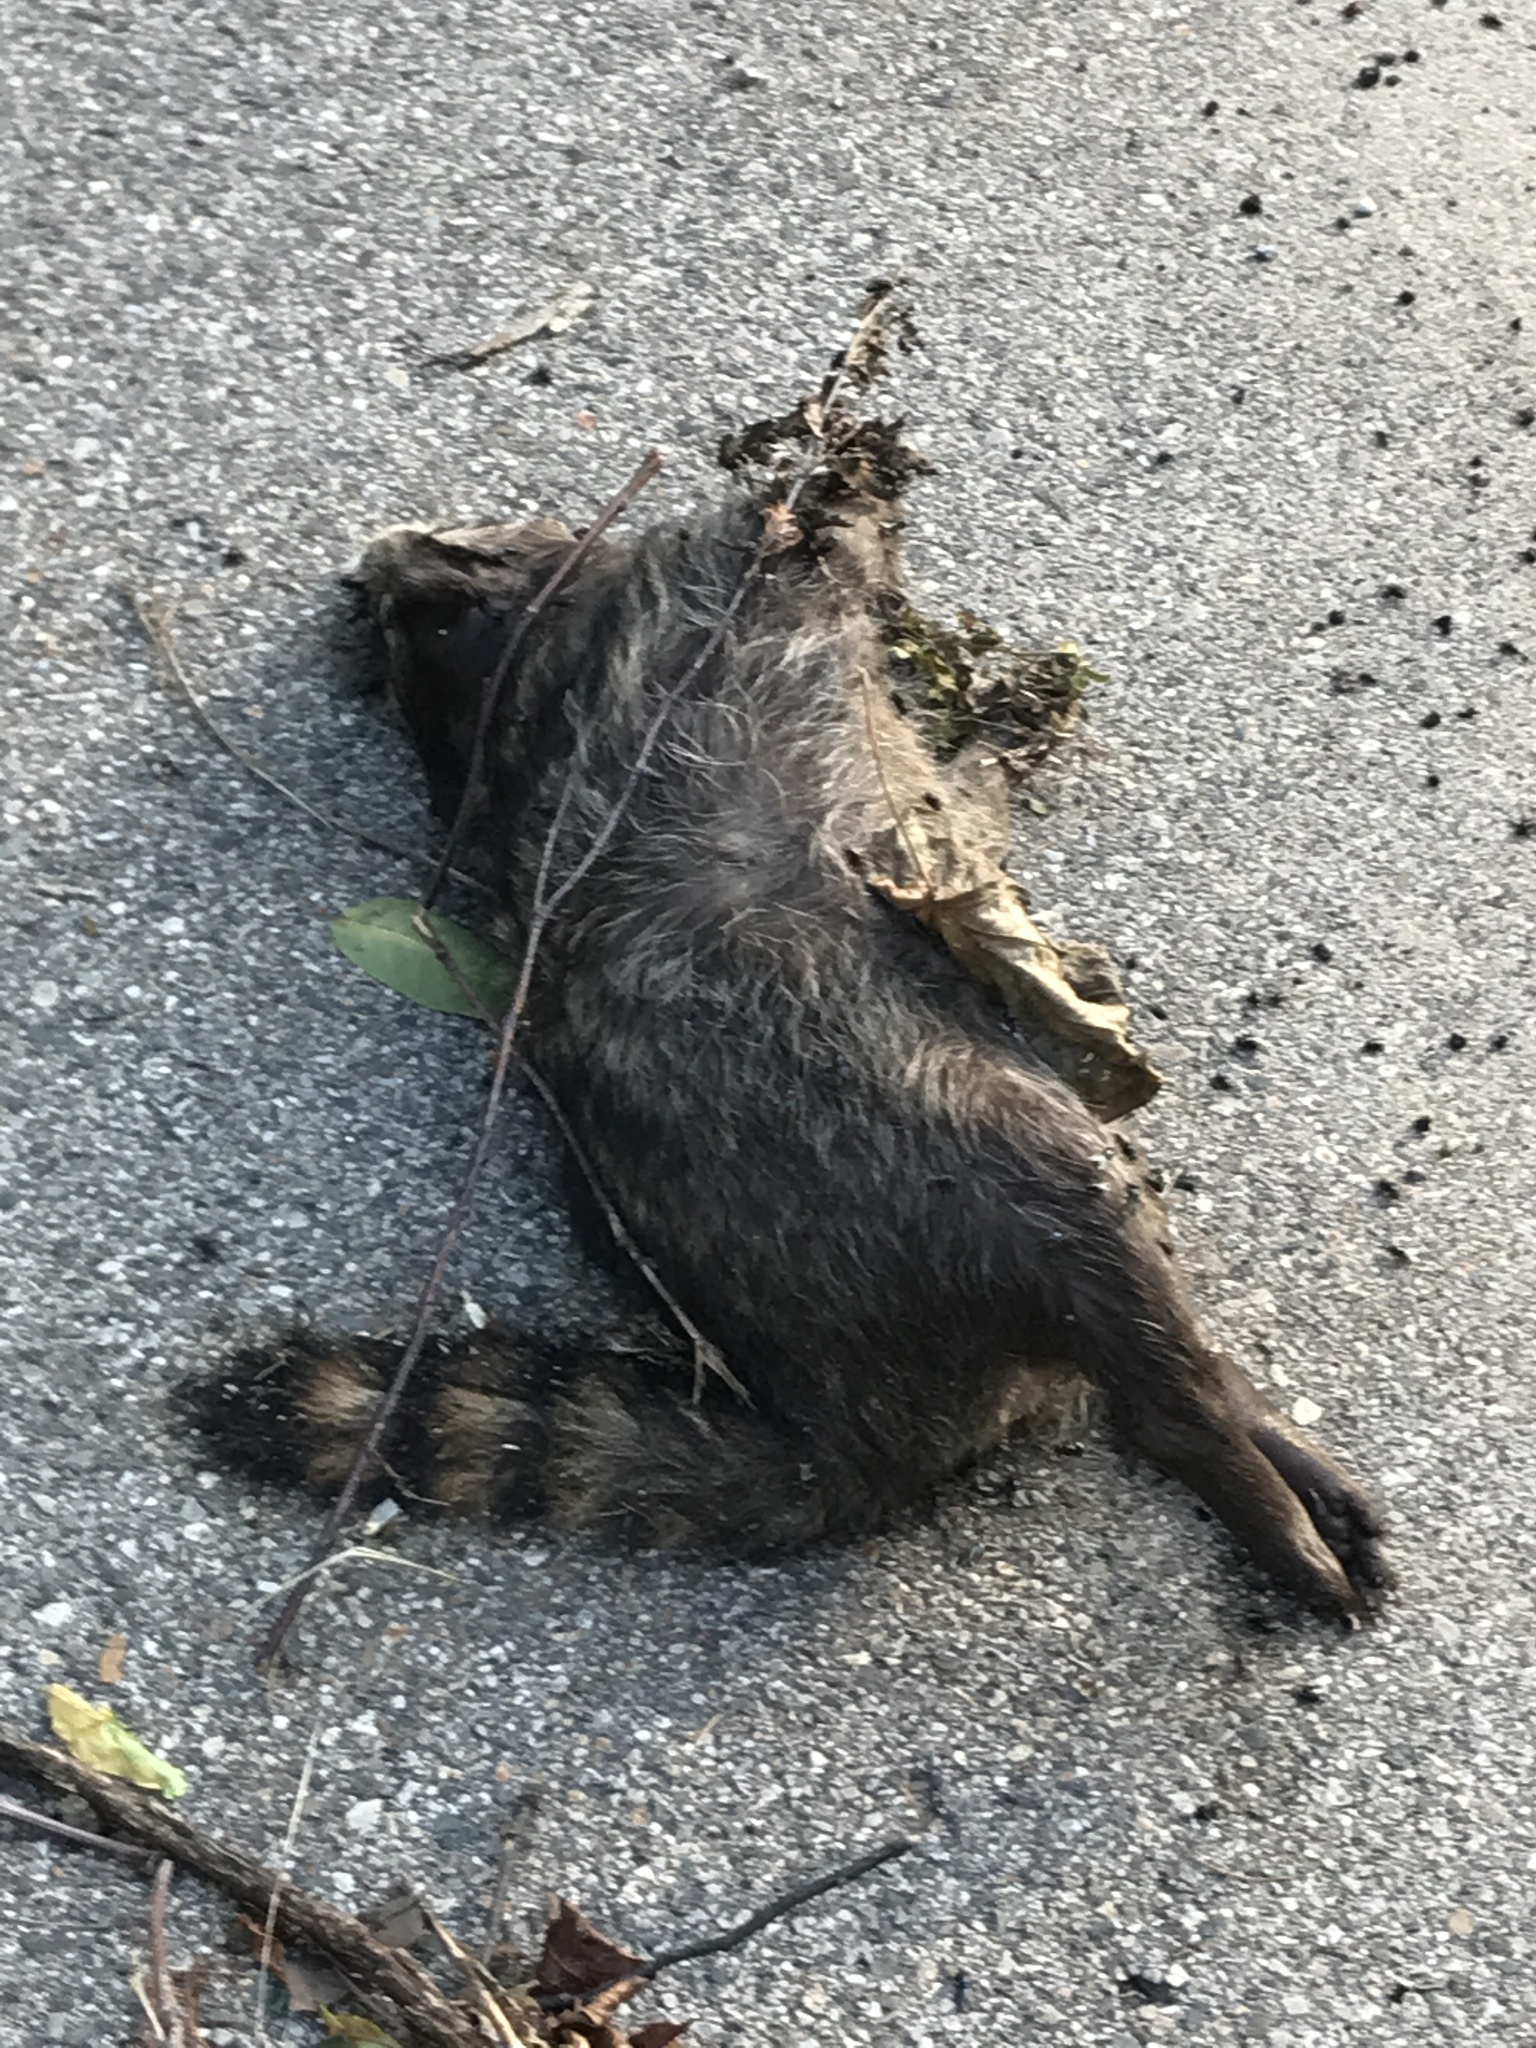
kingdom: Animalia
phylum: Chordata
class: Mammalia
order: Carnivora
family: Procyonidae
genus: Procyon
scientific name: Procyon lotor
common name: Raccoon
